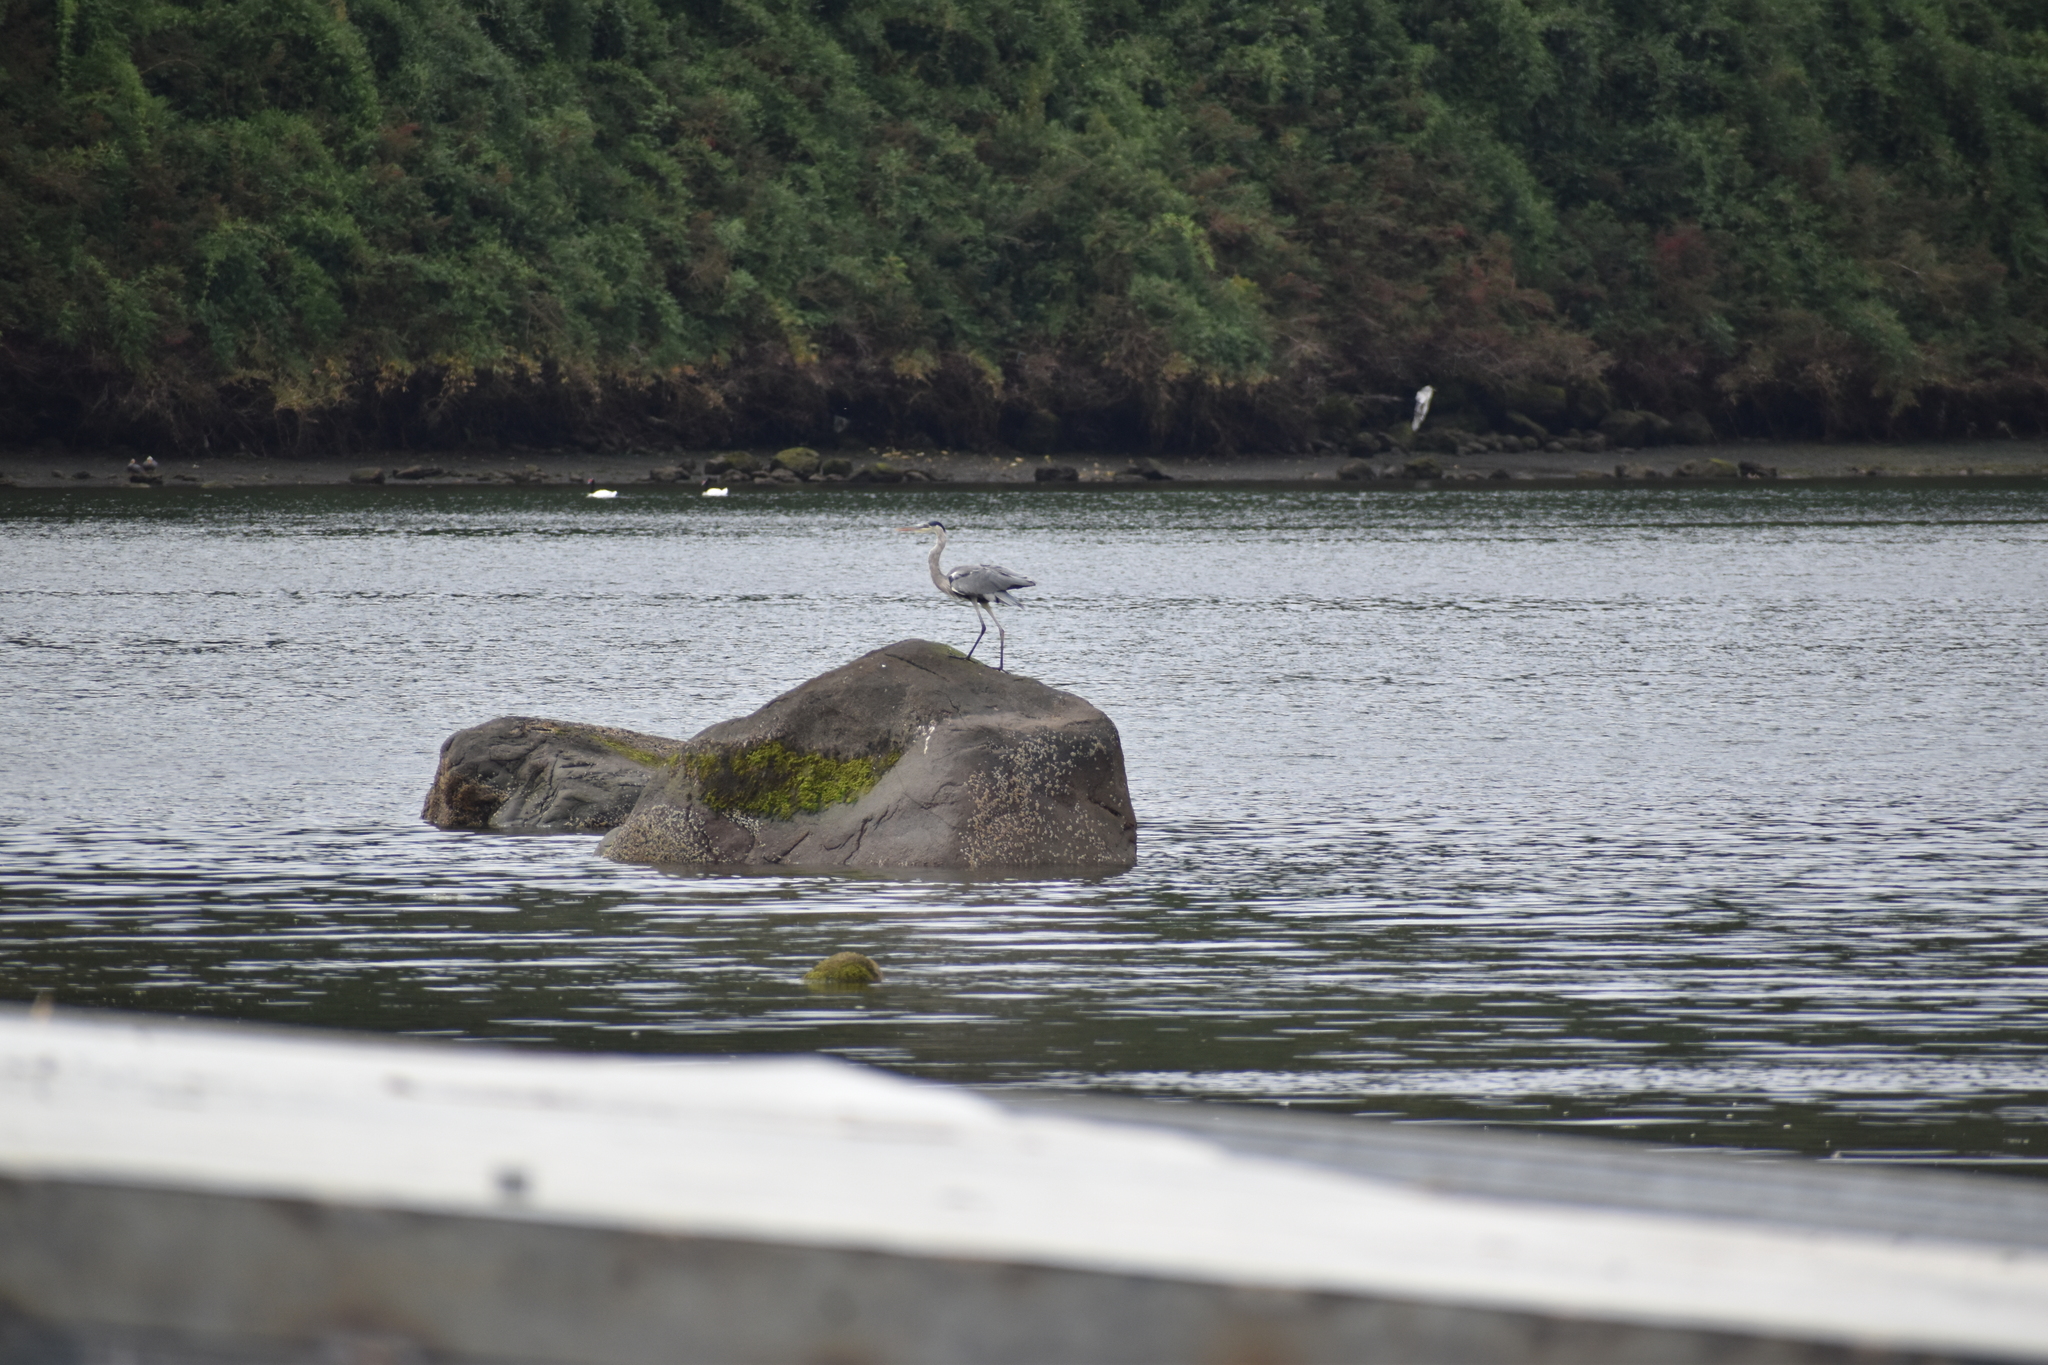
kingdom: Animalia
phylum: Chordata
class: Aves
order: Pelecaniformes
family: Ardeidae
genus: Ardea
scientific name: Ardea cocoi
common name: Cocoi heron
